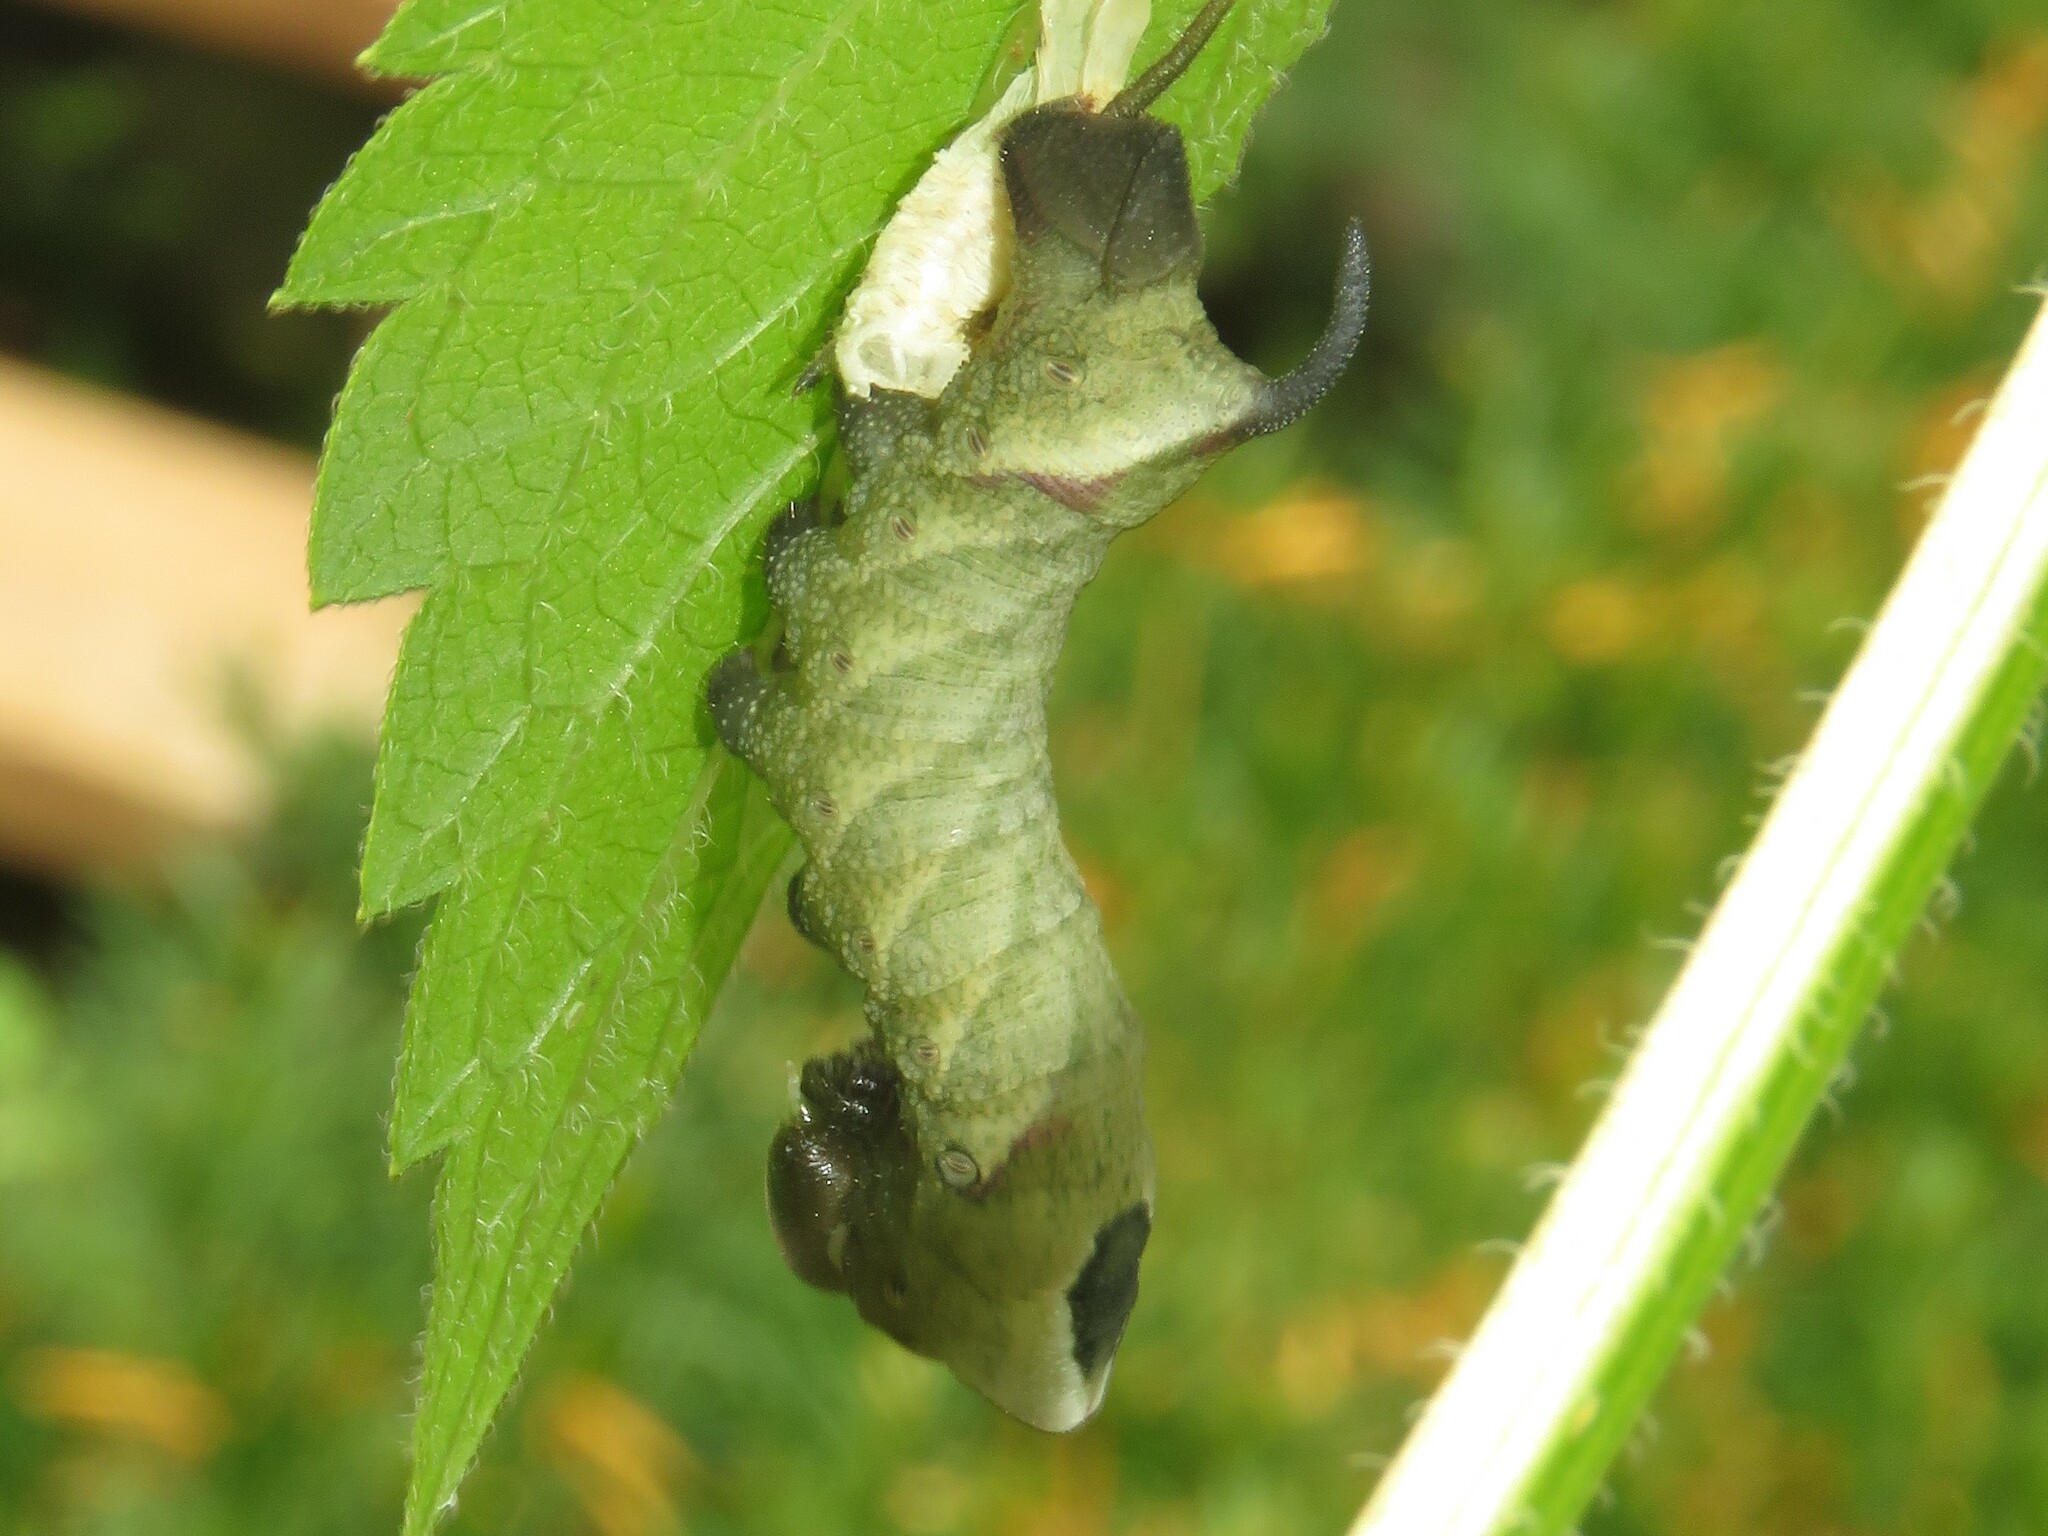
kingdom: Animalia
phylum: Arthropoda
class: Insecta
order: Lepidoptera
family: Sphingidae
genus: Lintneria
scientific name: Lintneria eremitus
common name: Hermit sphinx
